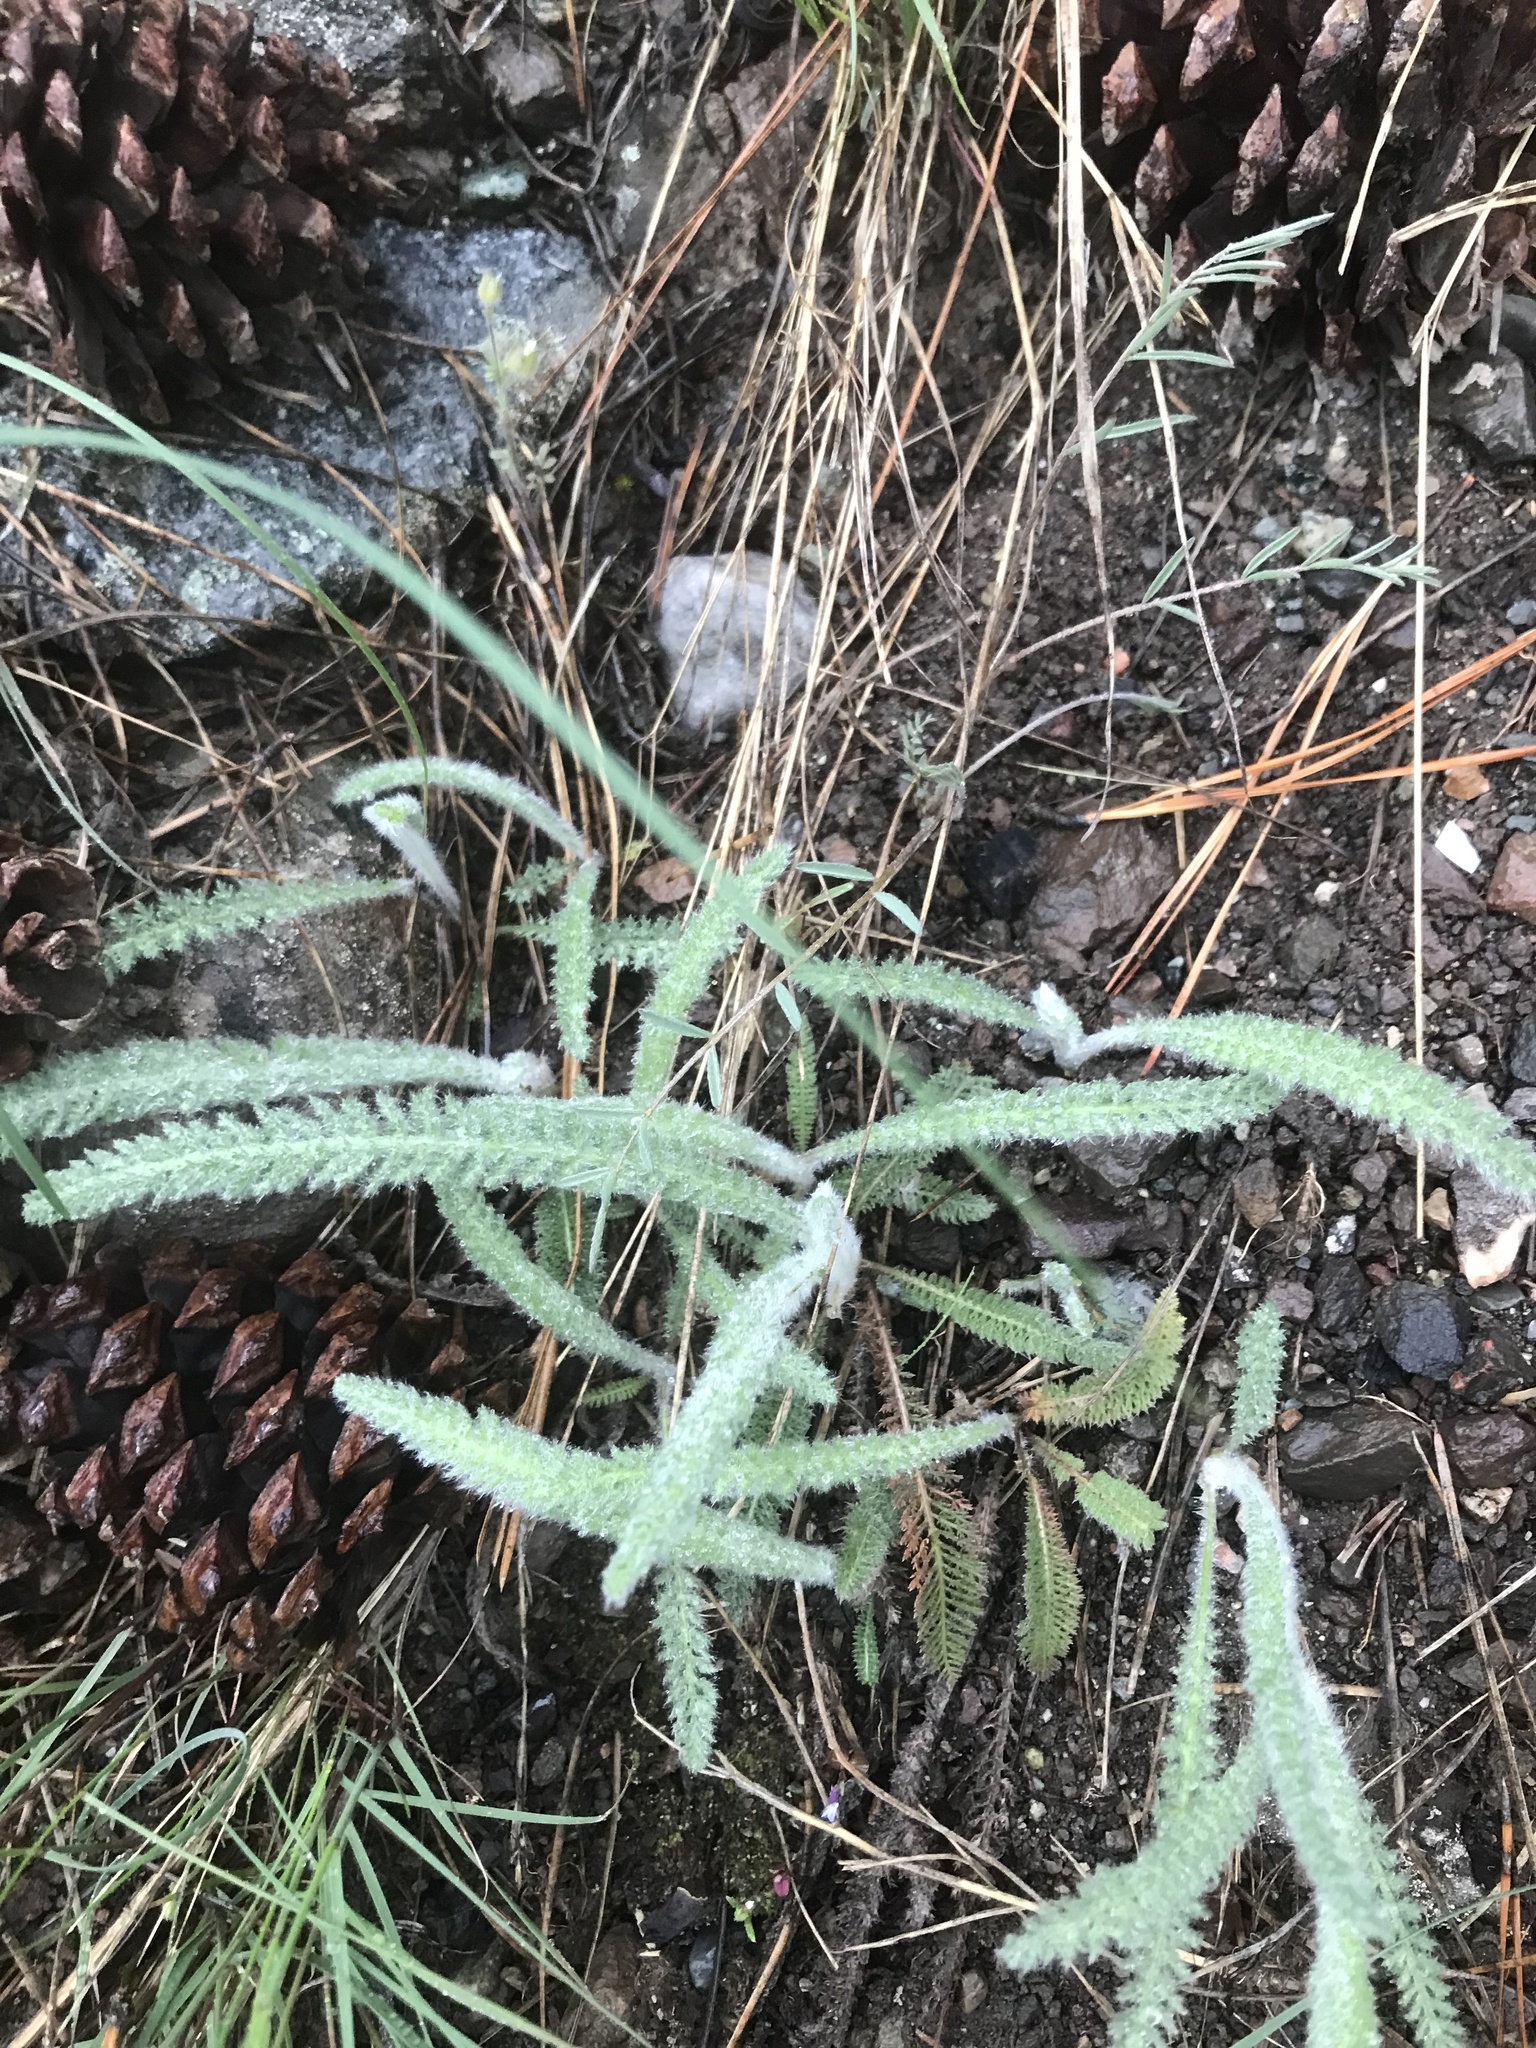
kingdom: Plantae
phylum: Tracheophyta
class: Magnoliopsida
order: Asterales
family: Asteraceae
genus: Achillea
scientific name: Achillea millefolium
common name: Yarrow
